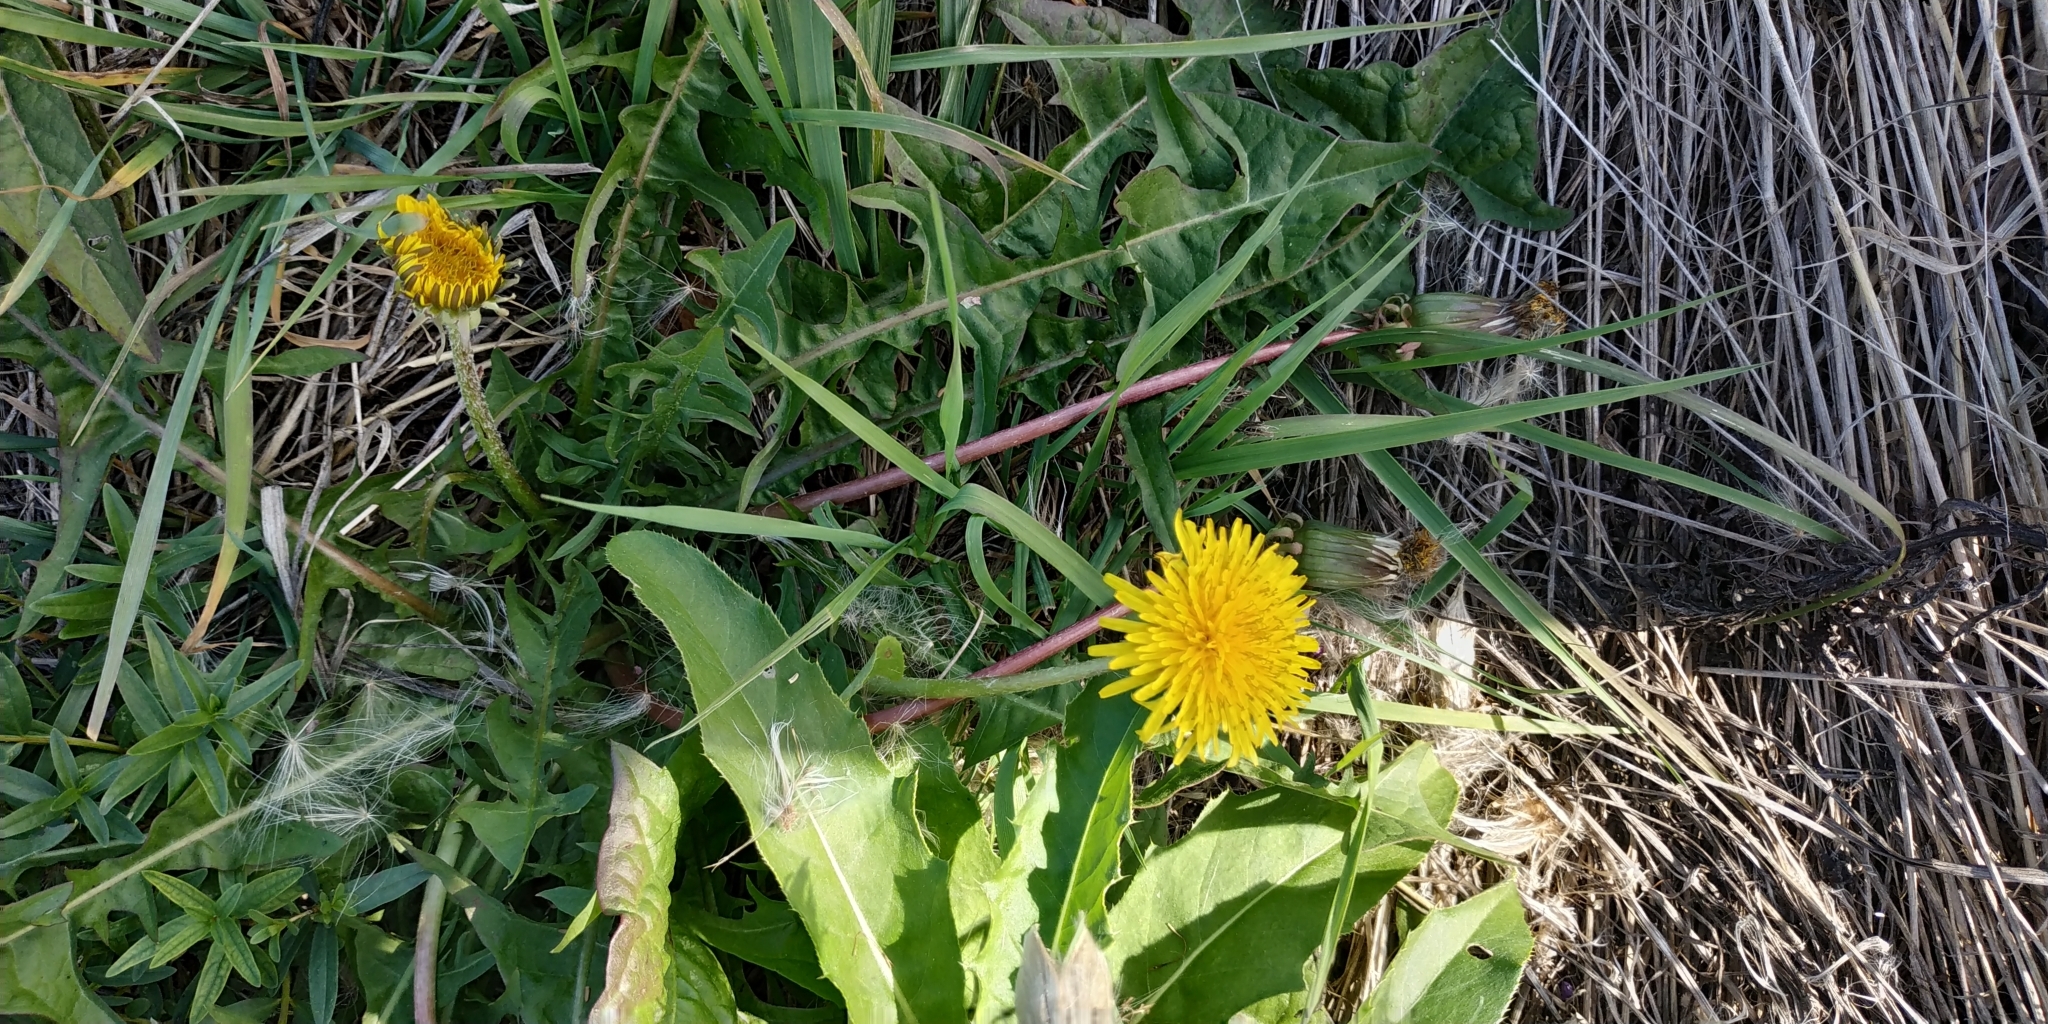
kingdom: Plantae
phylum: Tracheophyta
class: Magnoliopsida
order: Asterales
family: Asteraceae
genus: Taraxacum
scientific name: Taraxacum officinale
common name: Common dandelion
